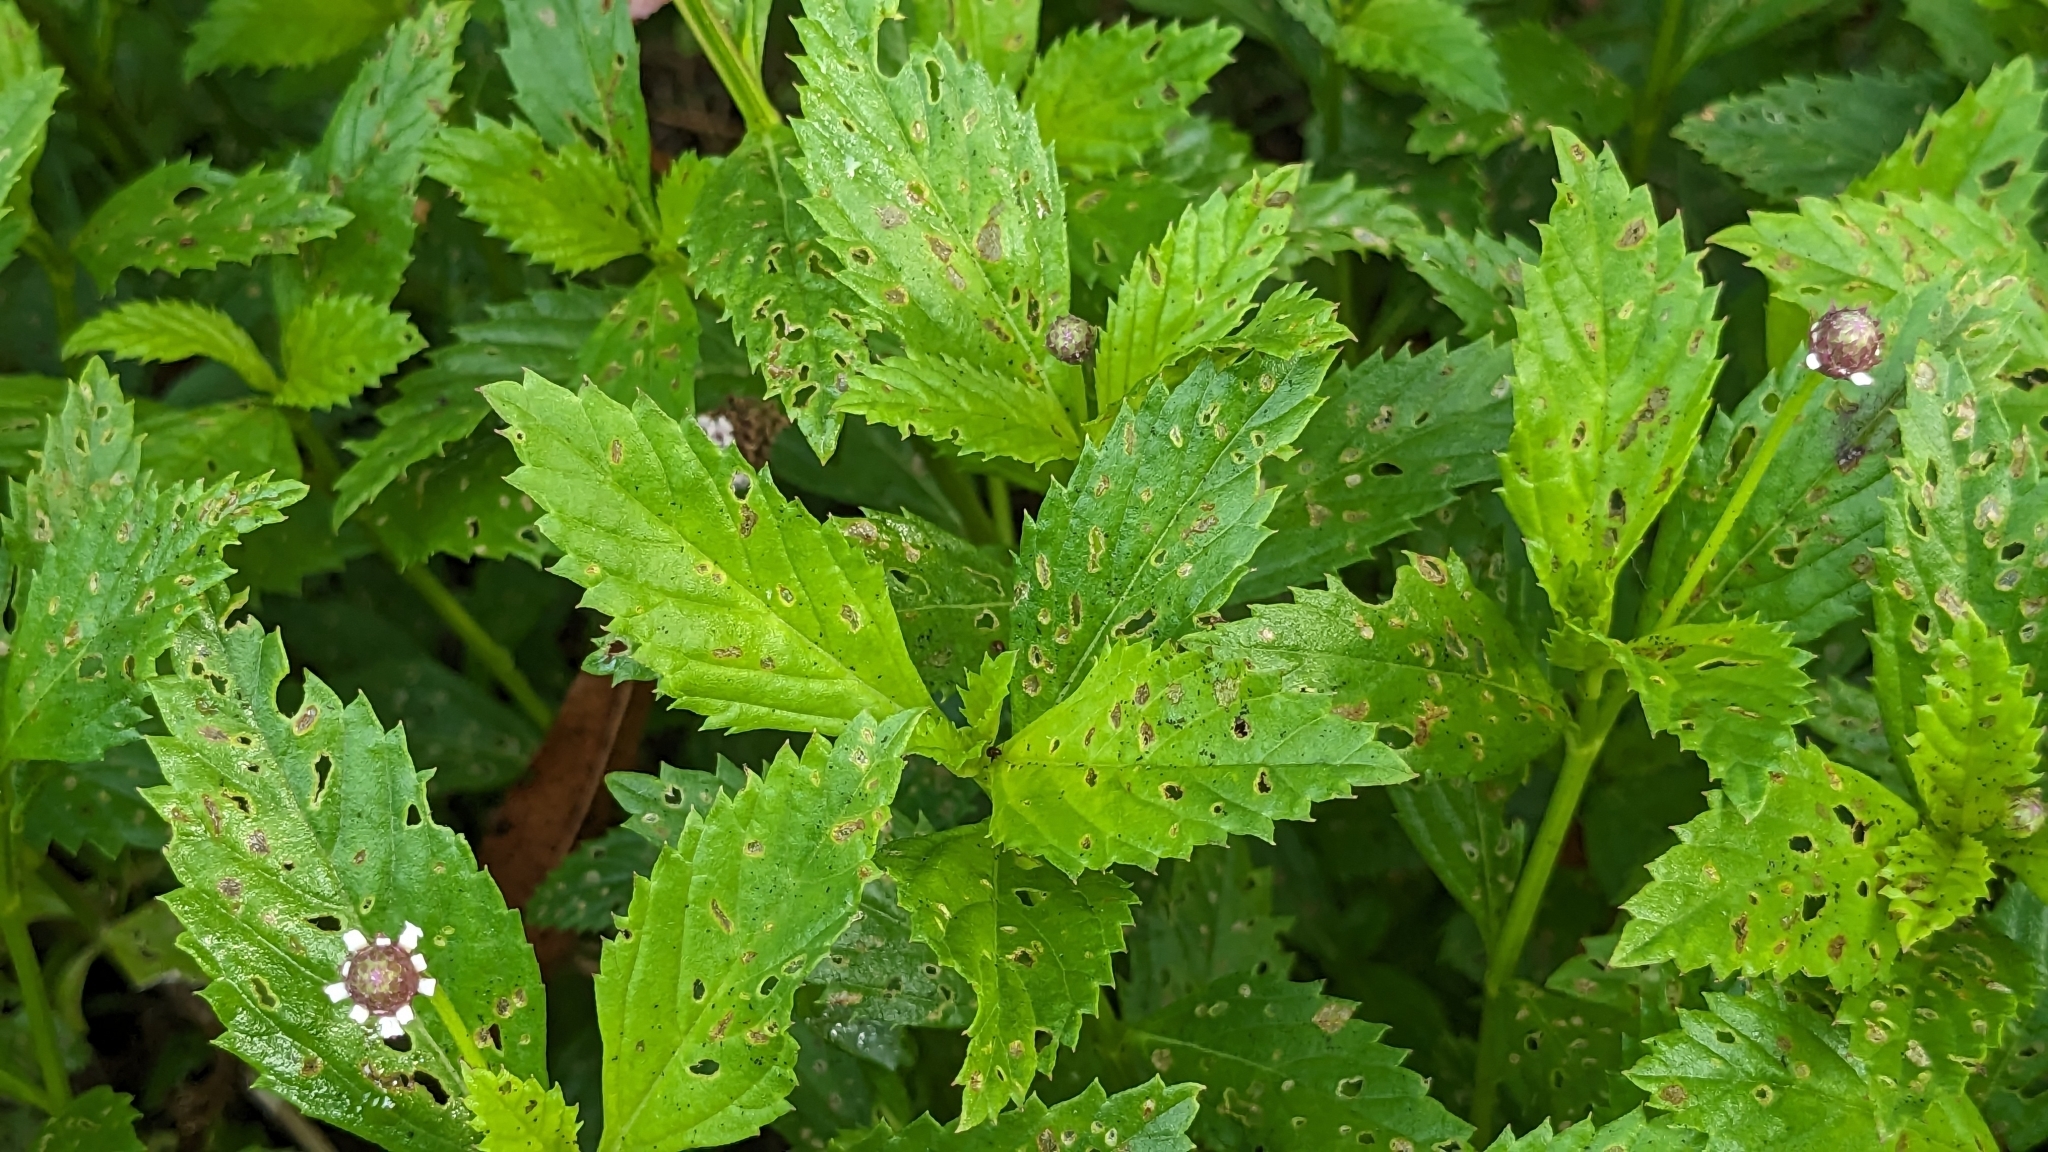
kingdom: Plantae
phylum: Tracheophyta
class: Magnoliopsida
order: Lamiales
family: Verbenaceae
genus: Phyla
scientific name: Phyla lanceolata
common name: Northern fogfruit
